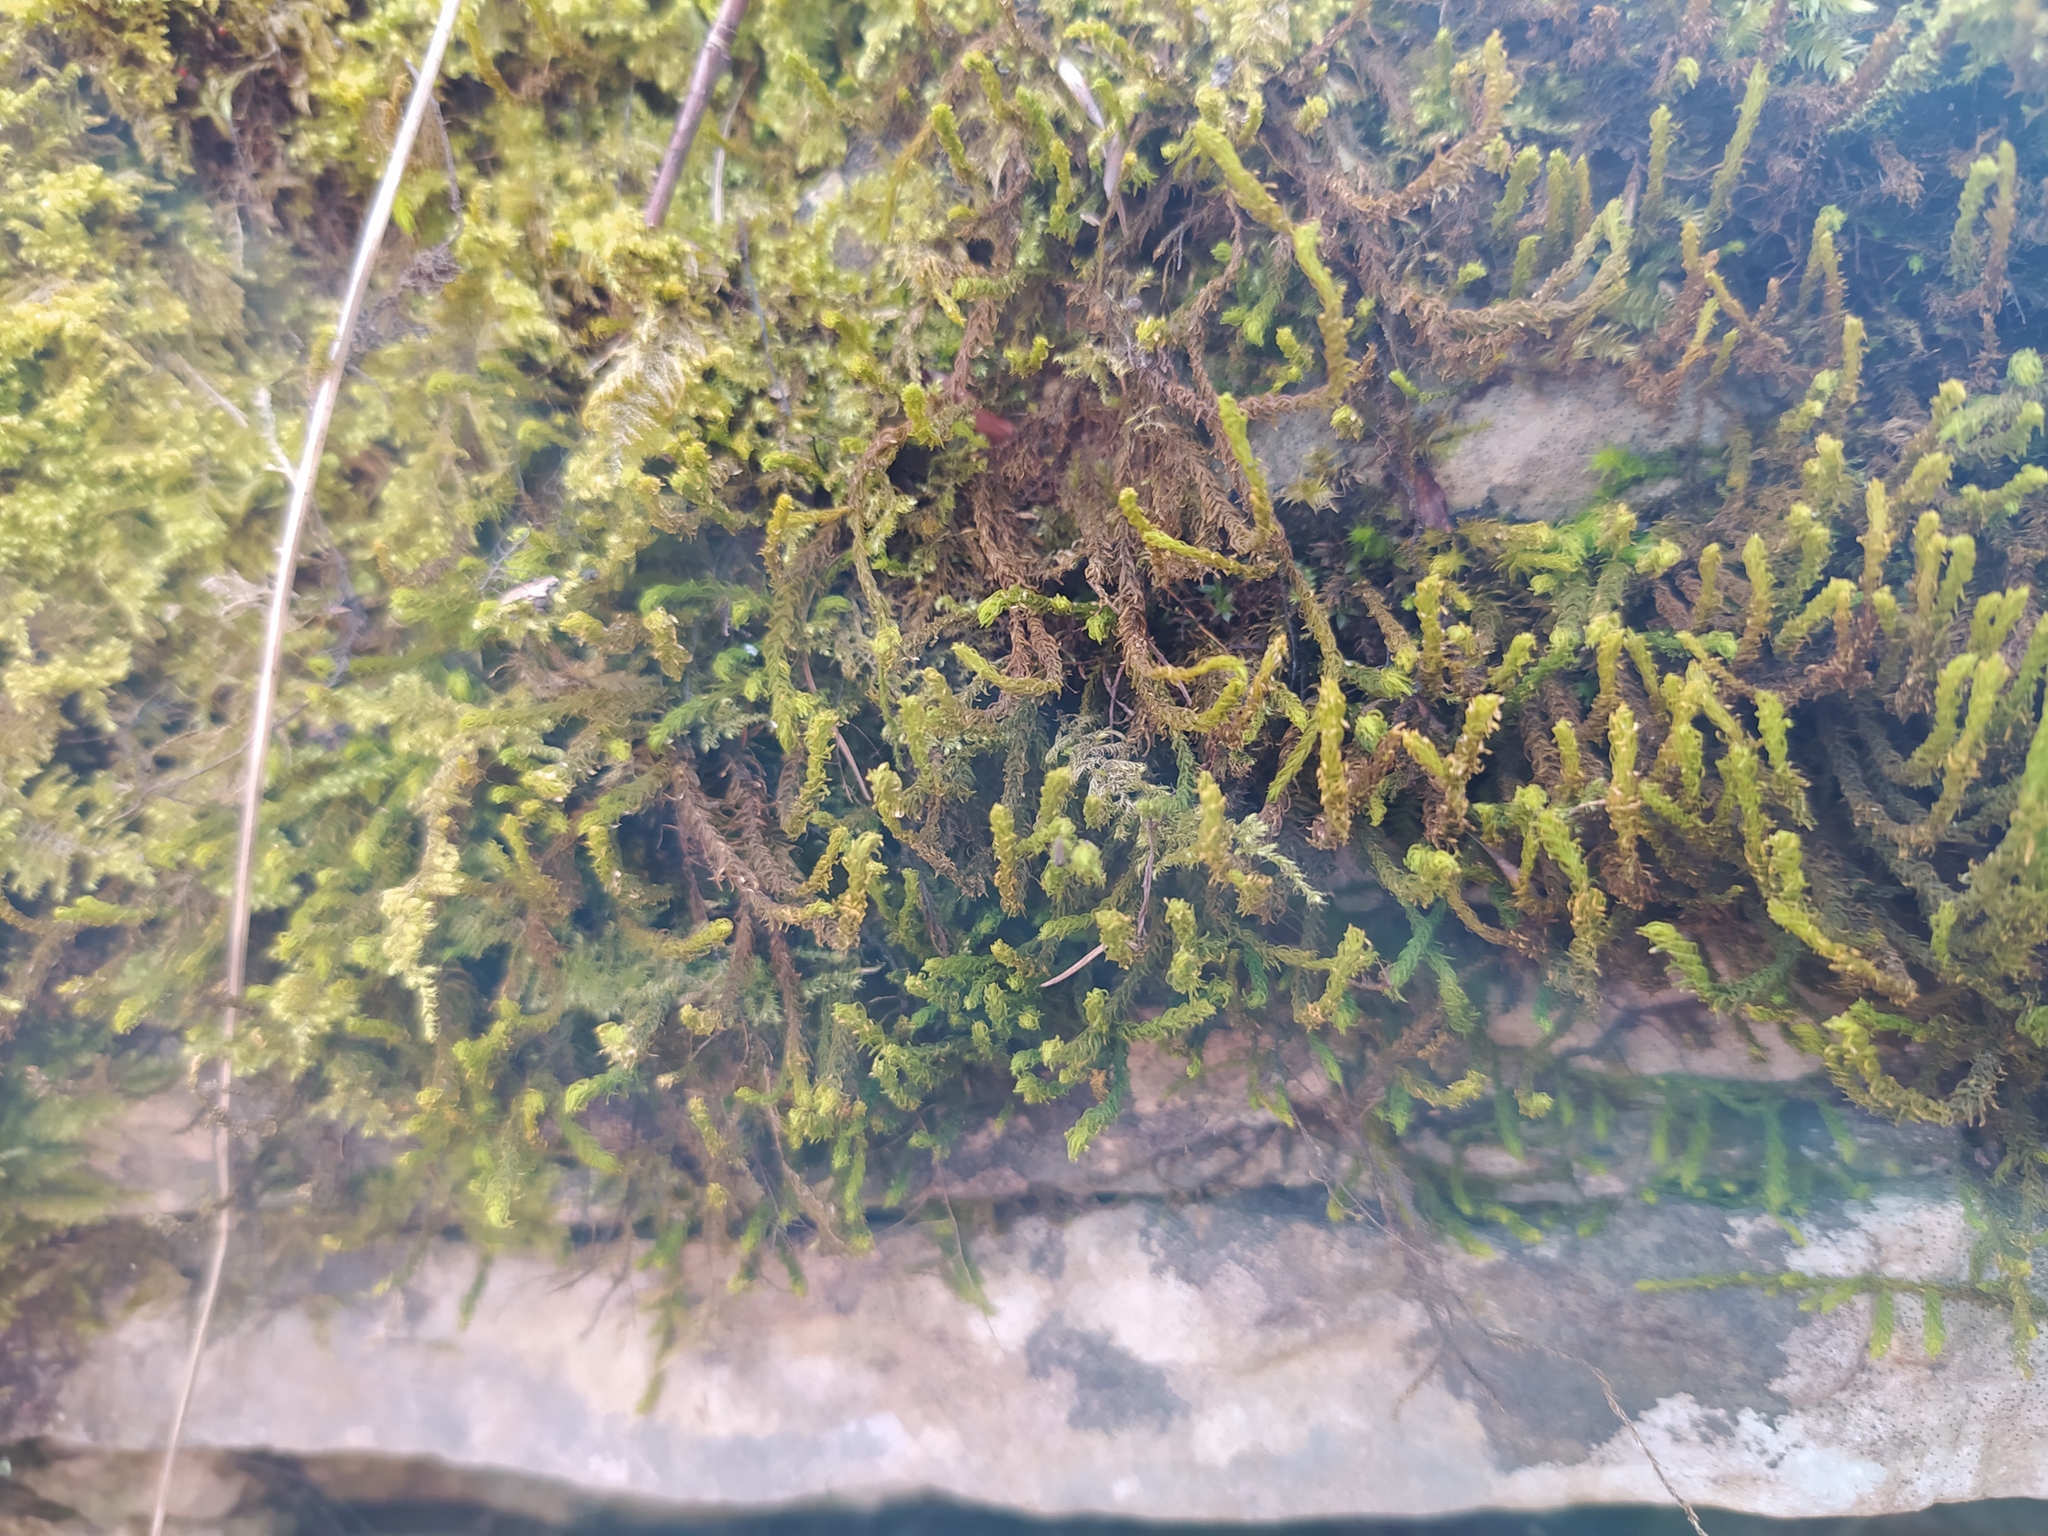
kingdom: Plantae
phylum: Bryophyta
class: Bryopsida
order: Hypnales
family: Anomodontaceae
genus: Anomodon
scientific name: Anomodon viticulosus
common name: Tall anomodon
